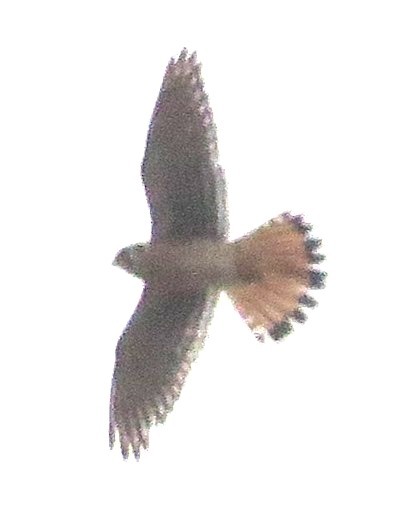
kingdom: Animalia
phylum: Chordata
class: Aves
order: Falconiformes
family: Falconidae
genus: Falco
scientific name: Falco sparverius
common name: American kestrel
